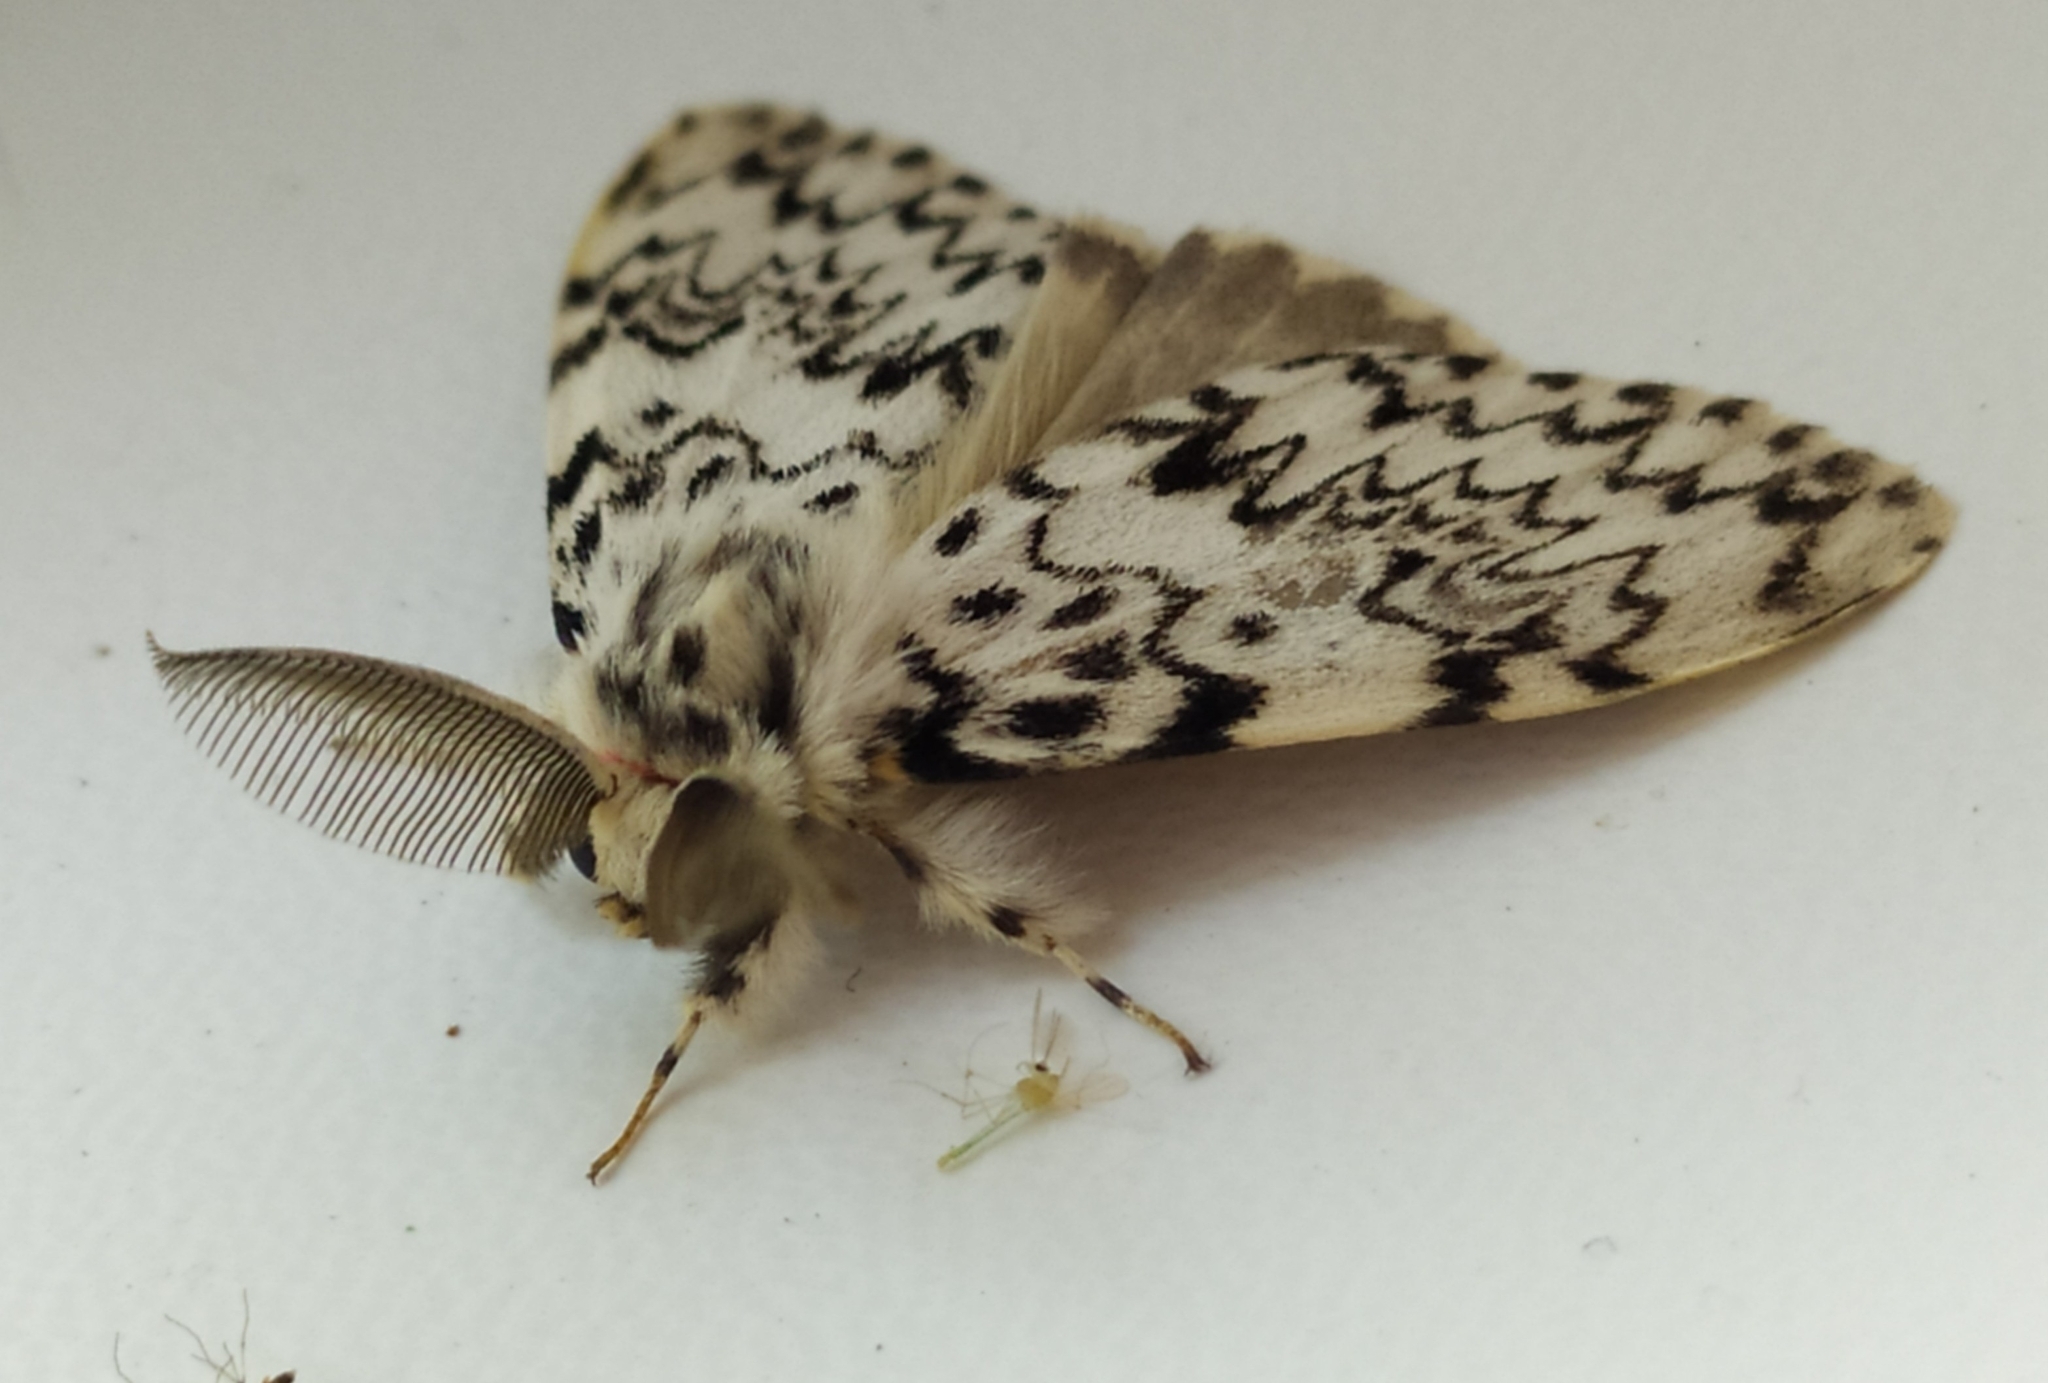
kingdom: Animalia
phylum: Arthropoda
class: Insecta
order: Lepidoptera
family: Erebidae
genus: Lymantria
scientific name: Lymantria monacha
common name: Black arches
